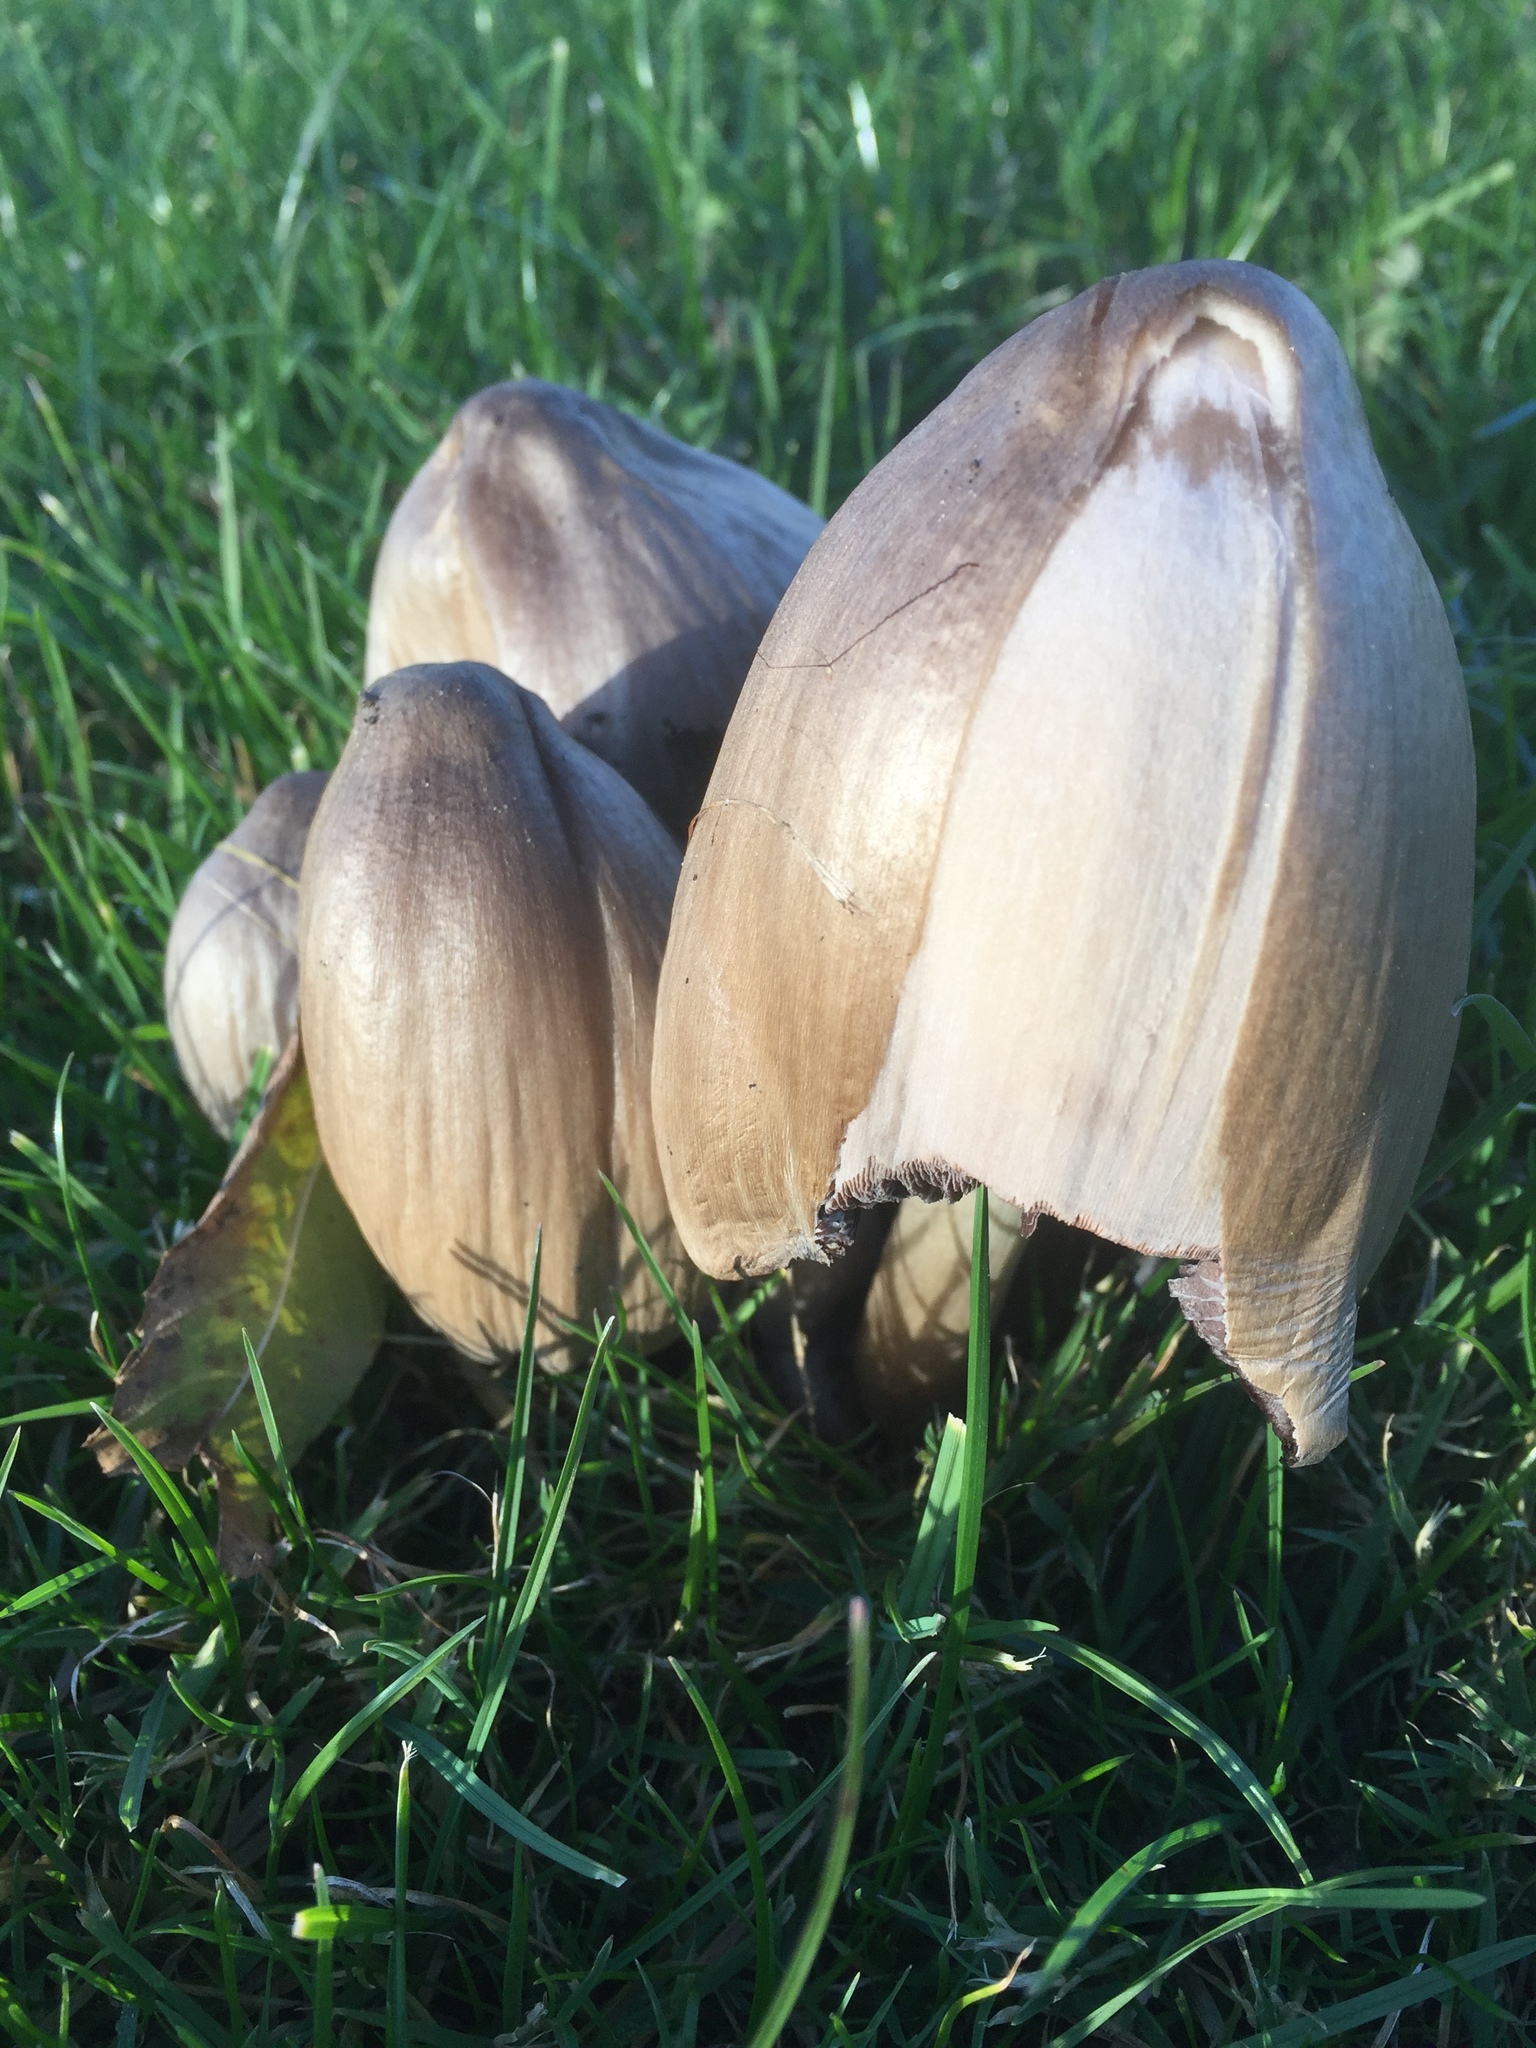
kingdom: Fungi
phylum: Basidiomycota
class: Agaricomycetes
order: Agaricales
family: Psathyrellaceae
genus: Coprinopsis
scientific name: Coprinopsis atramentaria
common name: Common ink-cap
